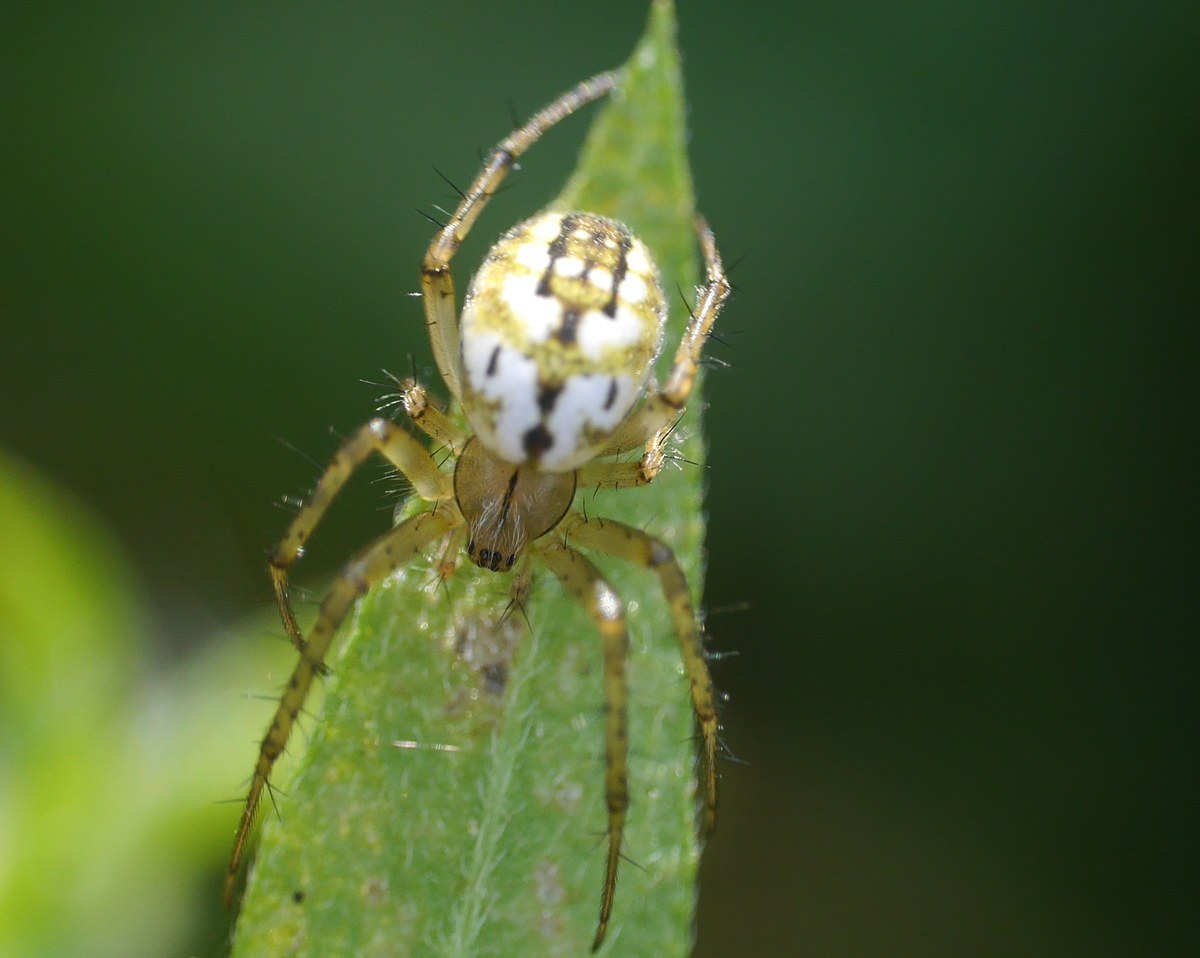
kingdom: Animalia
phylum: Arthropoda
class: Arachnida
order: Araneae
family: Araneidae
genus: Mangora
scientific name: Mangora acalypha
